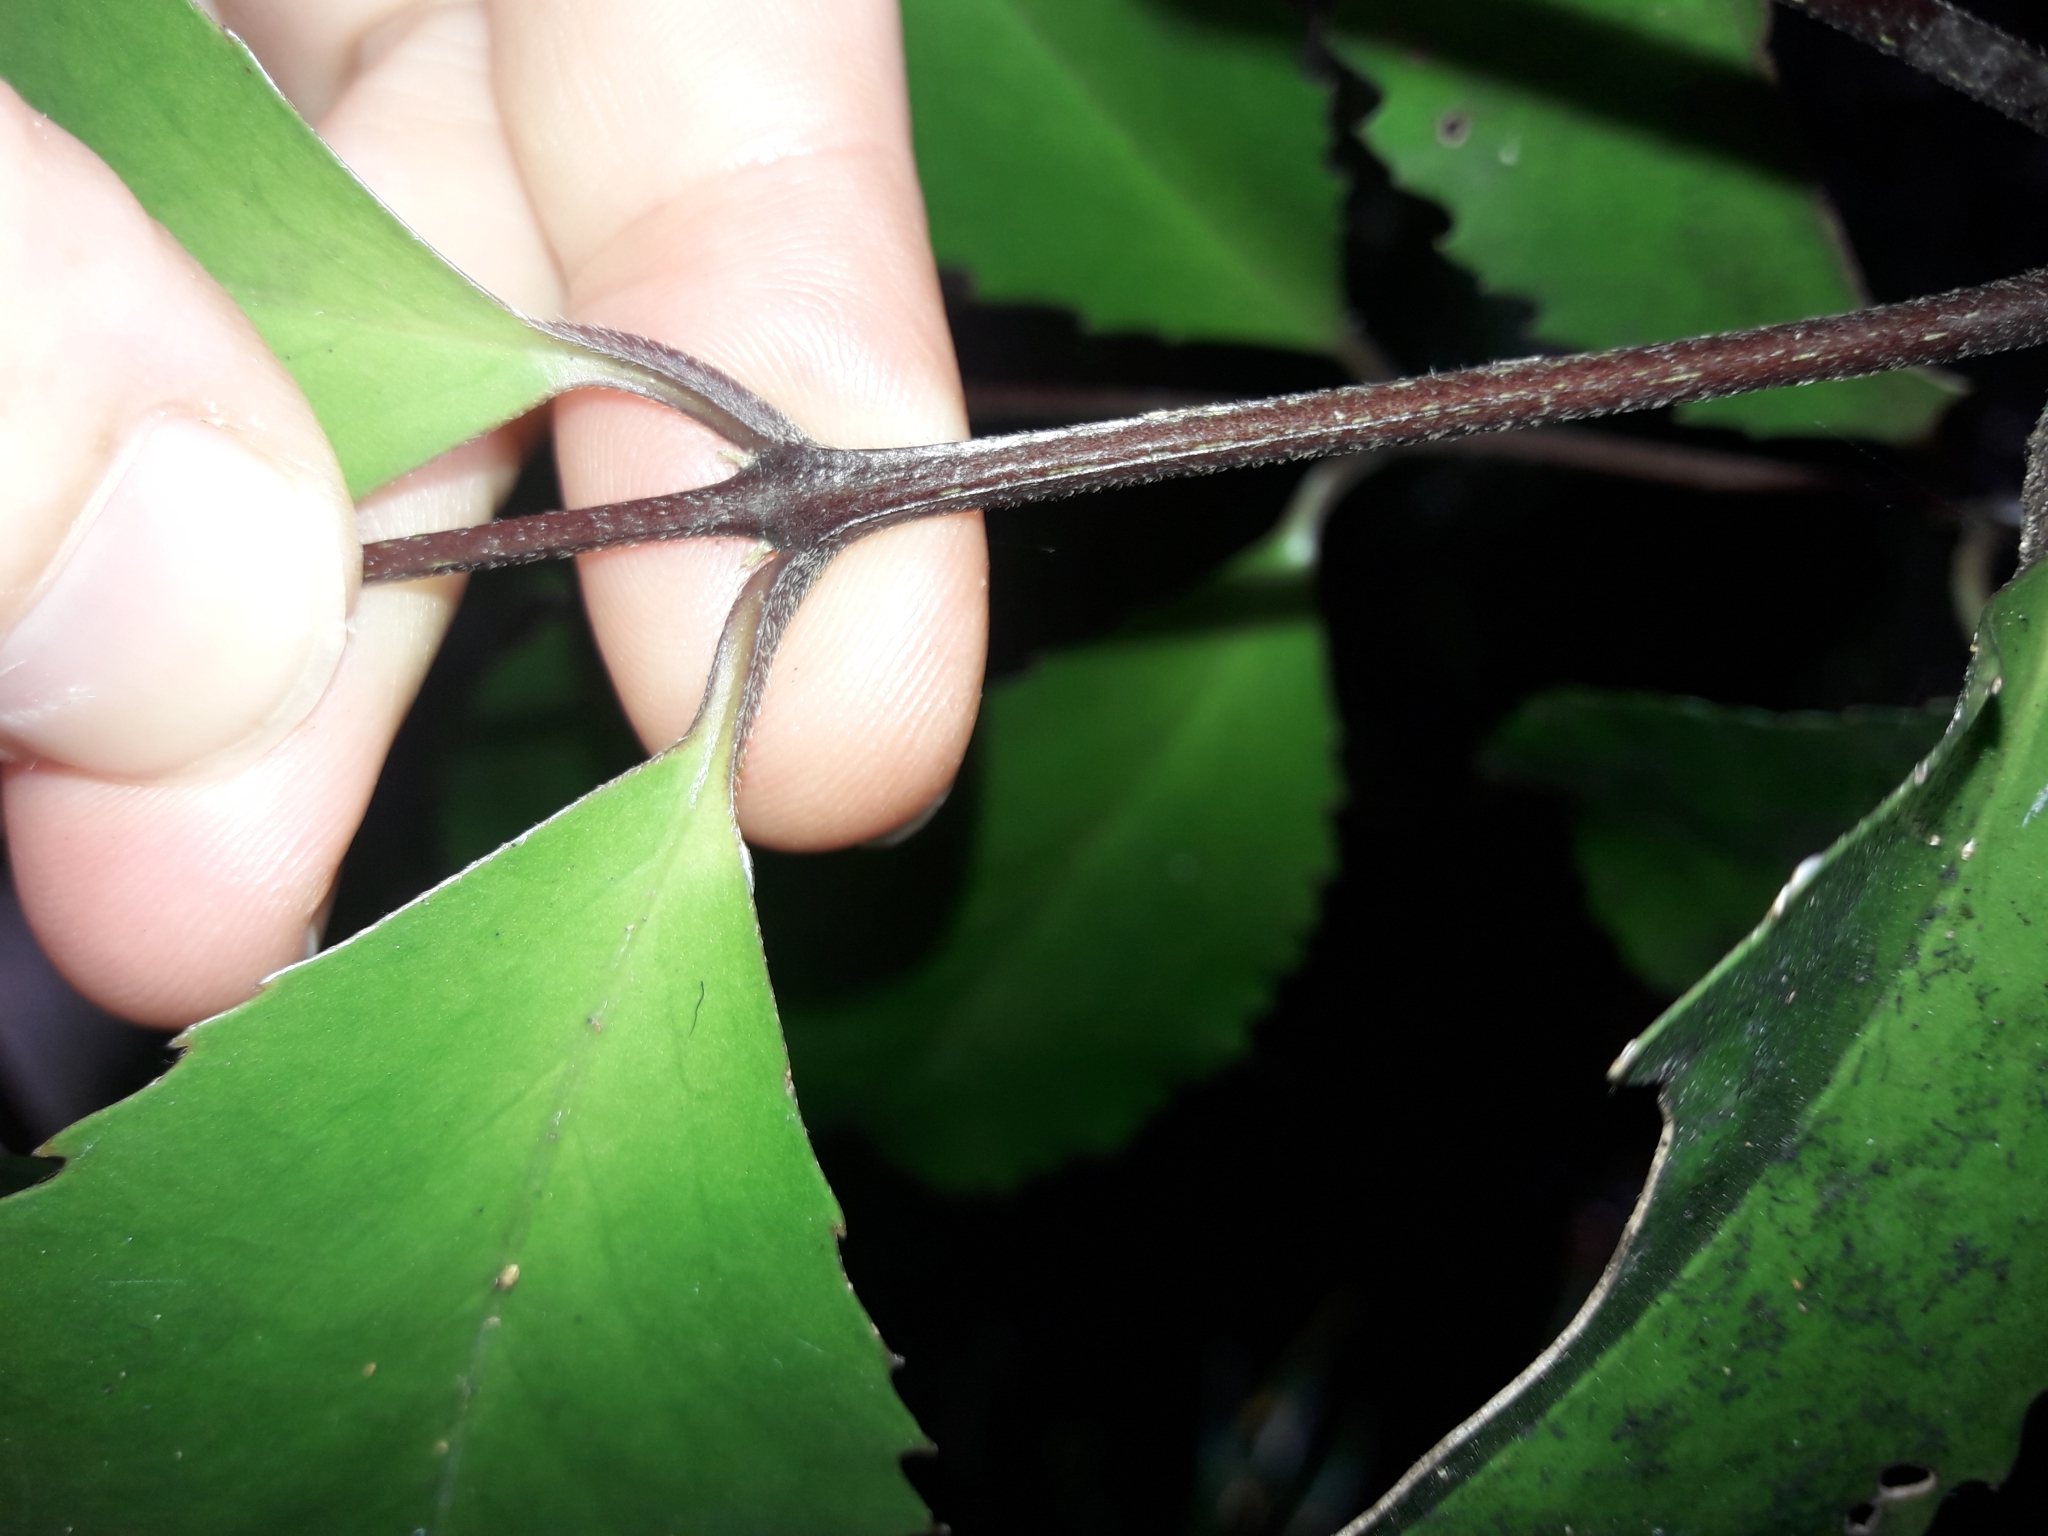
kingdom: Plantae
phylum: Tracheophyta
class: Magnoliopsida
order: Laurales
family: Atherospermataceae
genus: Laurelia
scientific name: Laurelia novae-zelandiae
